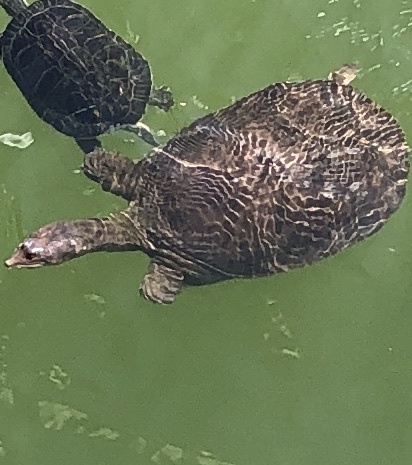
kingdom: Animalia
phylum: Chordata
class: Testudines
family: Trionychidae
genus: Apalone
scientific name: Apalone ferox
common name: Florida softshell turtle
